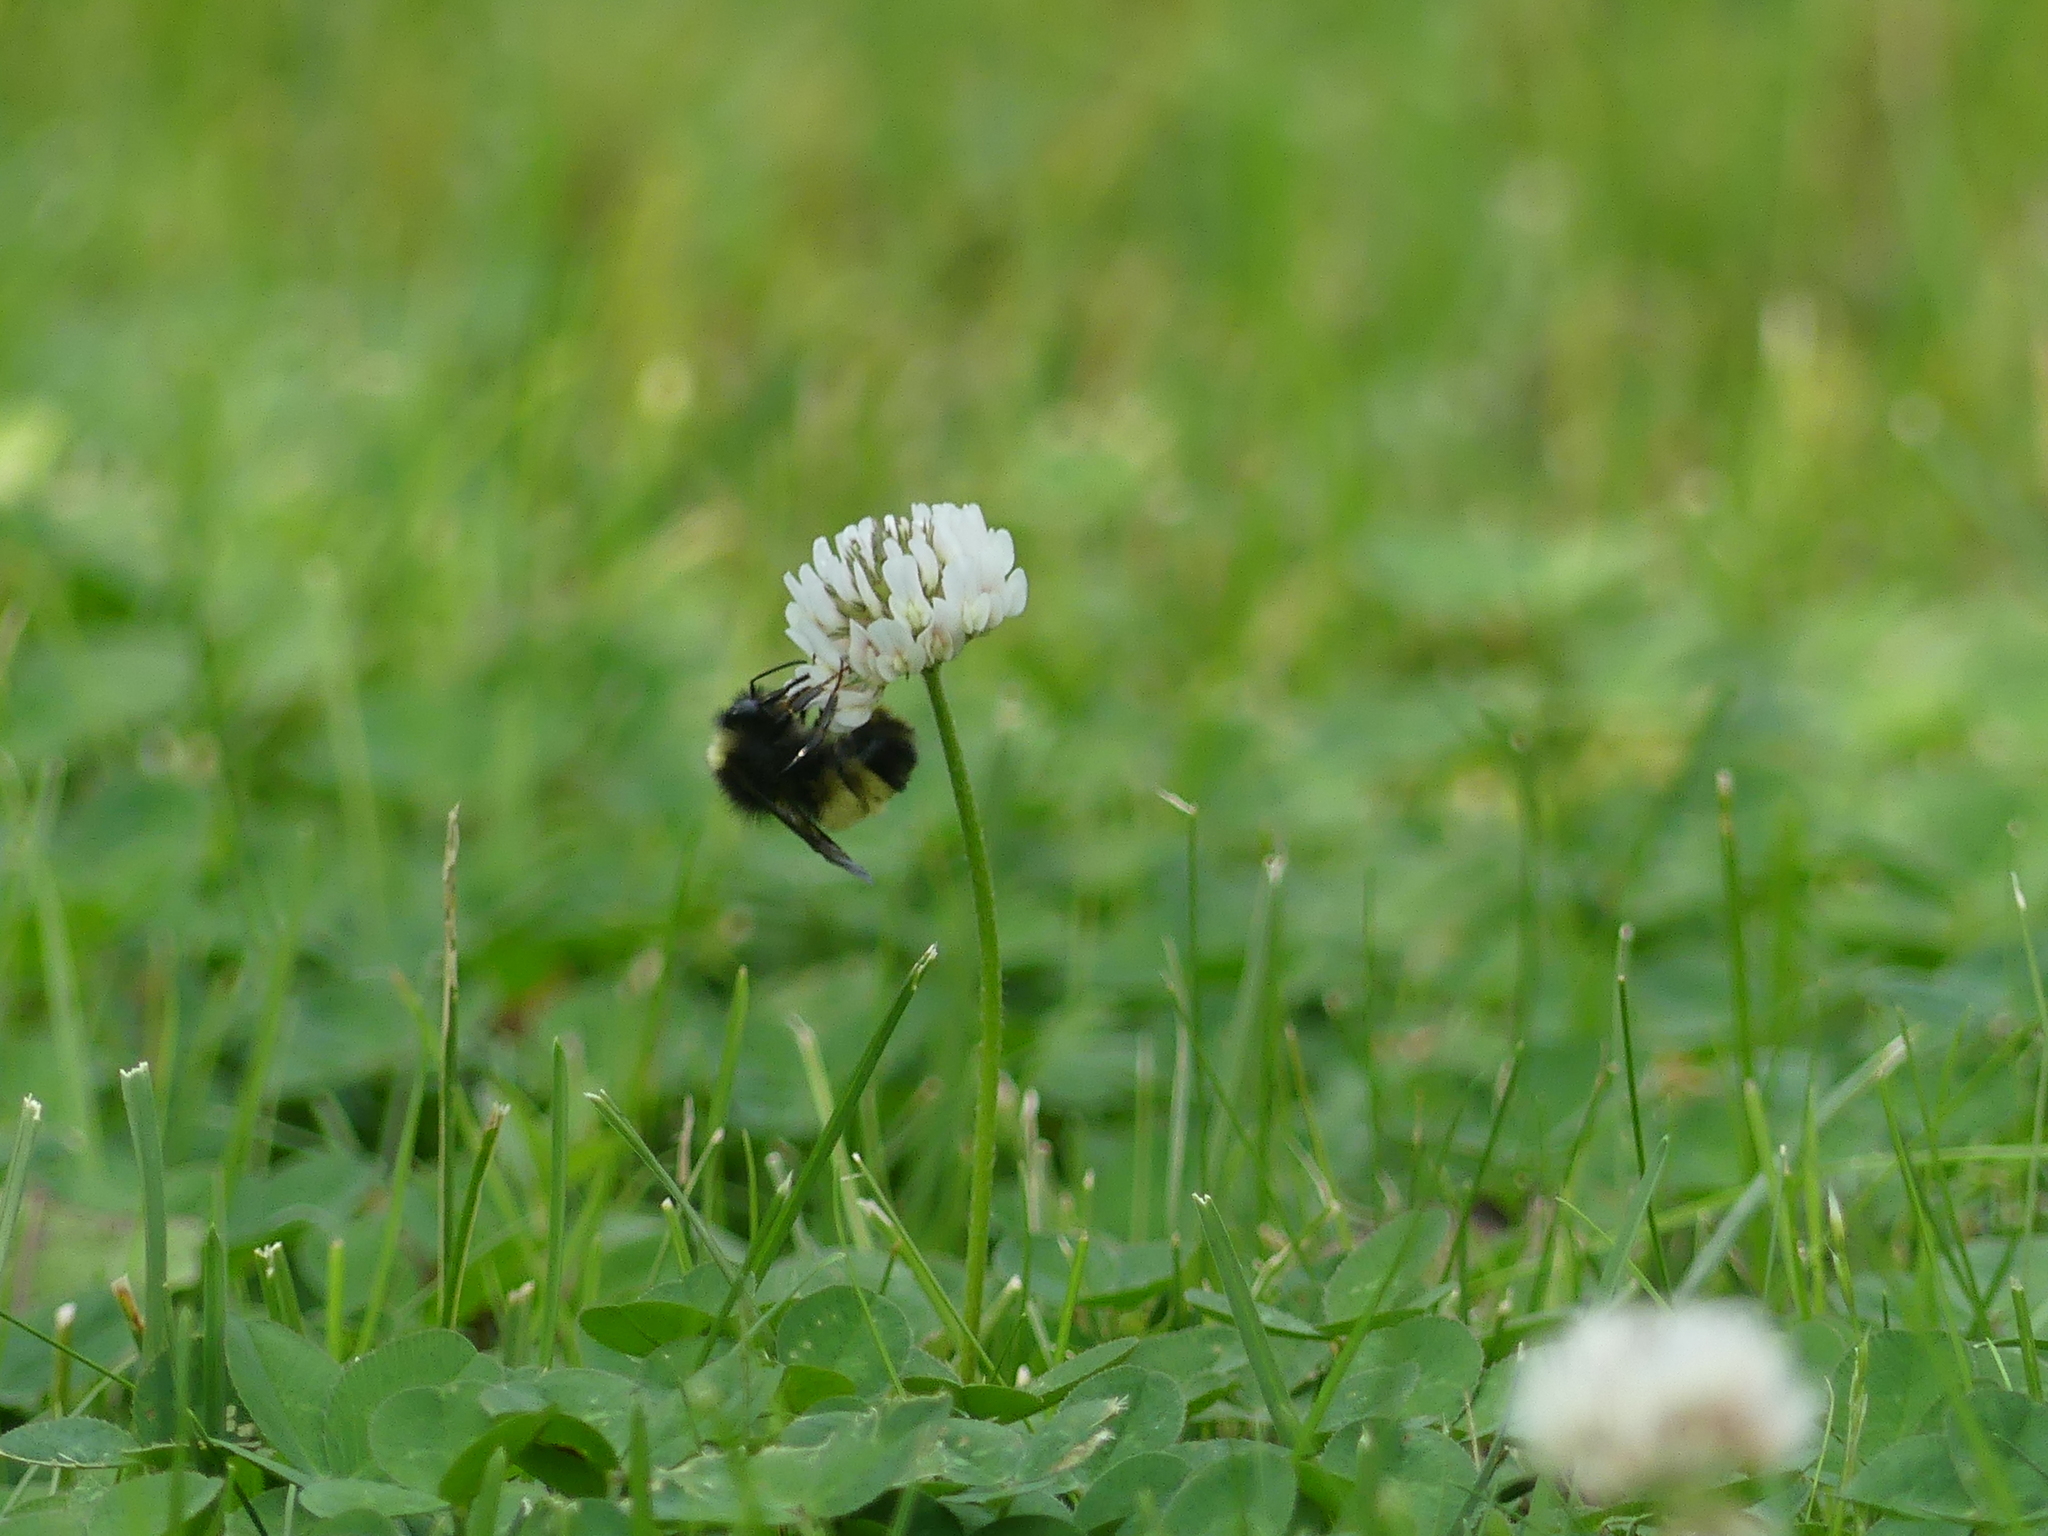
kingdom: Animalia
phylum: Arthropoda
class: Insecta
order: Hymenoptera
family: Apidae
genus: Bombus
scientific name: Bombus terricola
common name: Yellow-banded bumble bee
